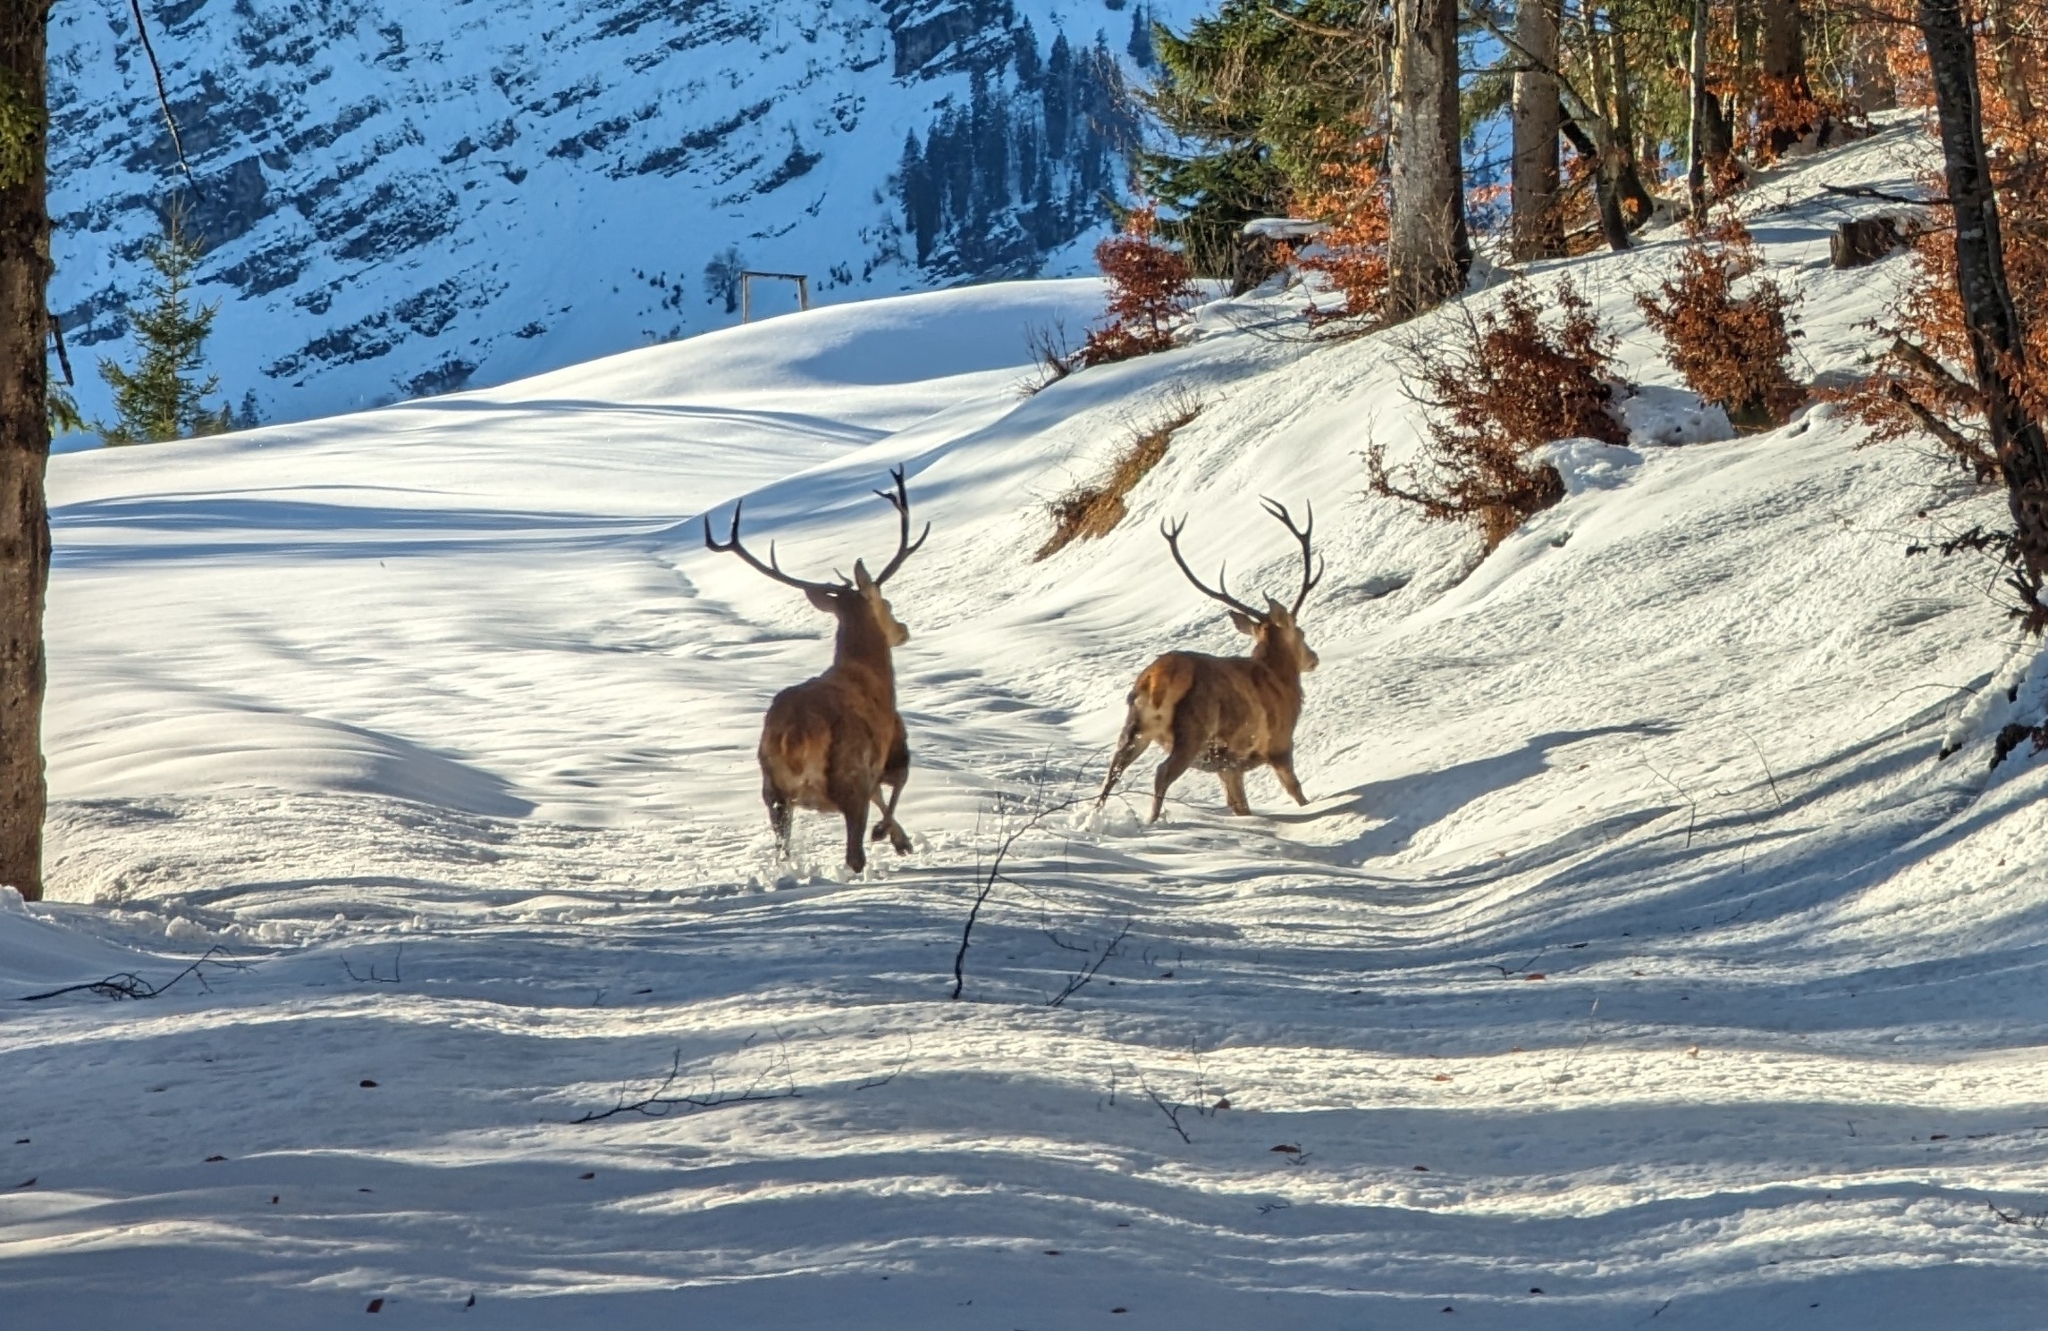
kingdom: Animalia
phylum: Chordata
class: Mammalia
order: Artiodactyla
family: Cervidae
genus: Cervus
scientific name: Cervus elaphus
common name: Red deer
